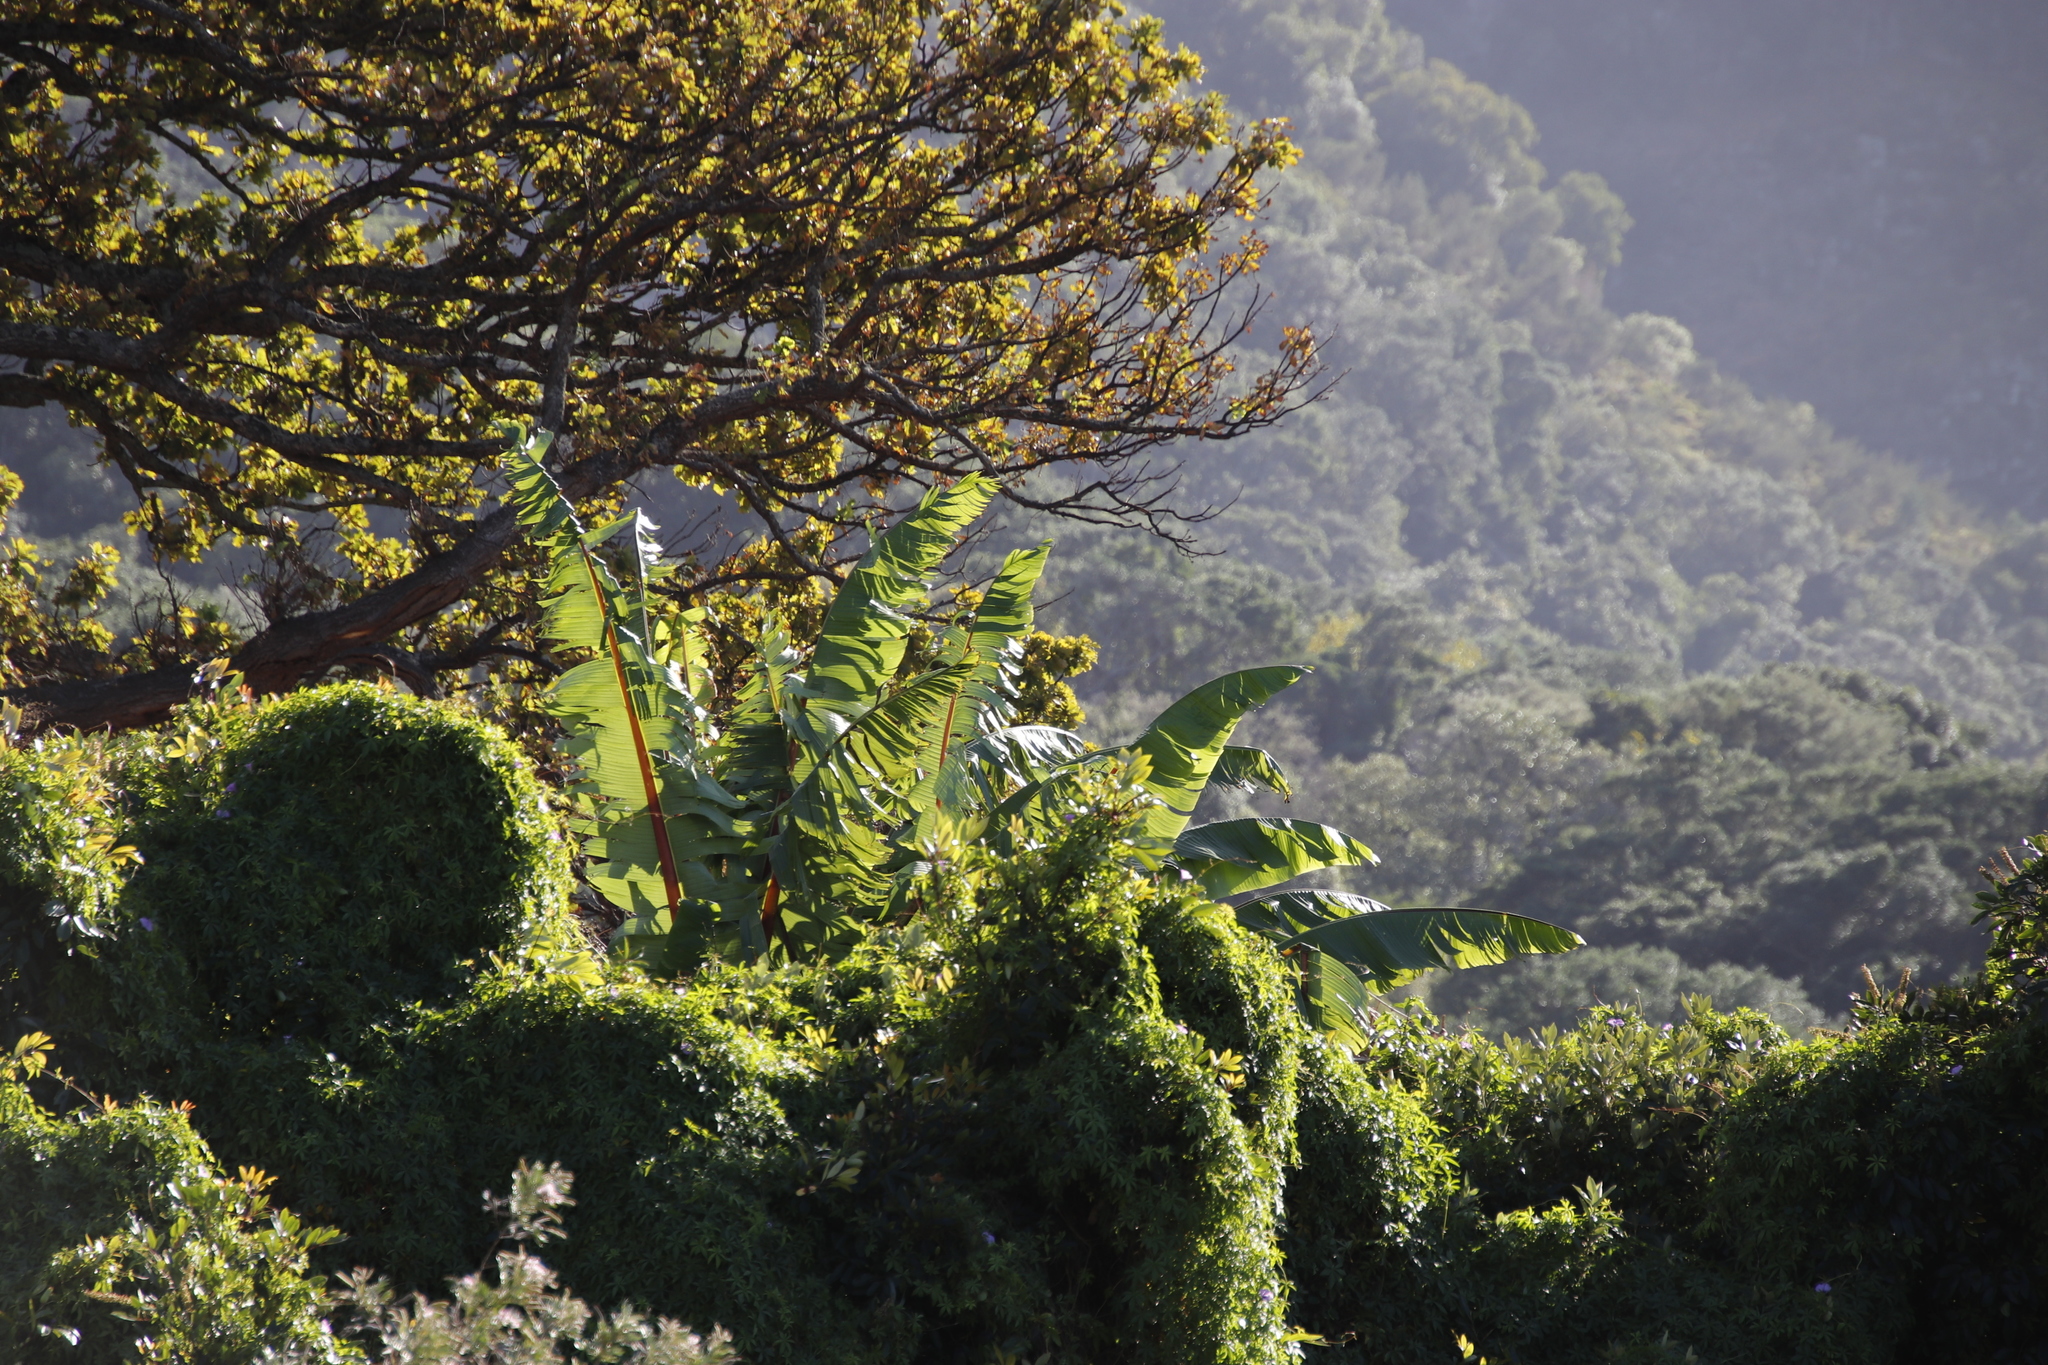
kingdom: Plantae
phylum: Tracheophyta
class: Liliopsida
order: Zingiberales
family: Musaceae
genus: Ensete
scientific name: Ensete ventricosum
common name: Abyssinian banana
